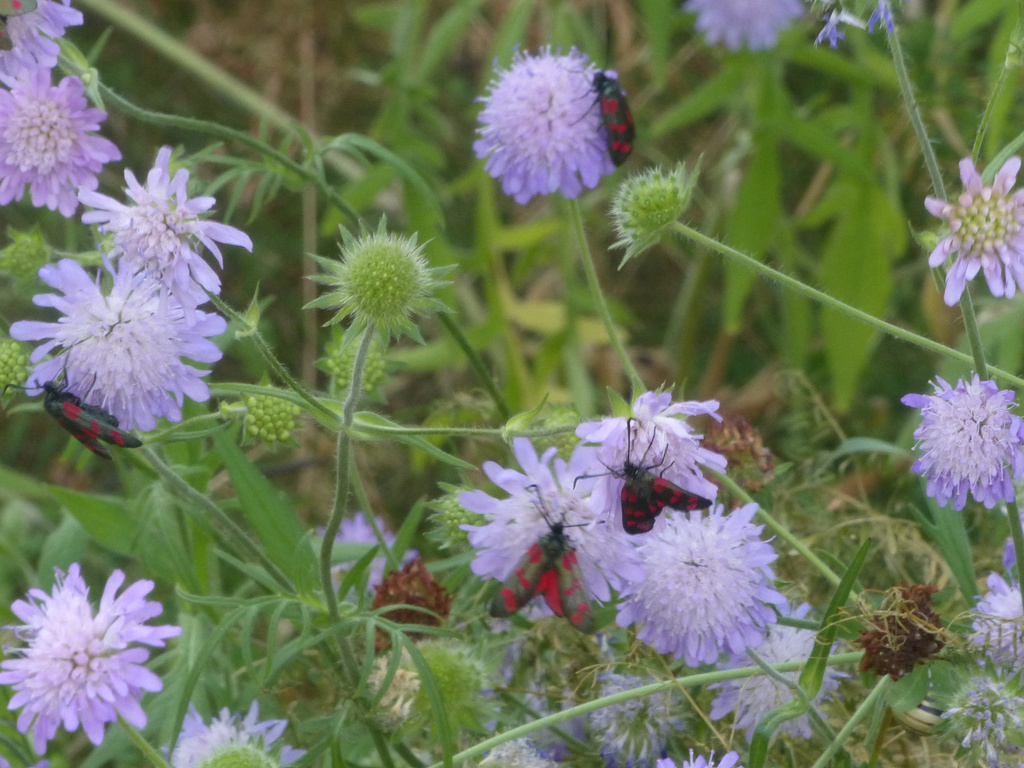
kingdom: Animalia
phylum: Arthropoda
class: Insecta
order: Lepidoptera
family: Zygaenidae
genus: Zygaena
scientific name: Zygaena filipendulae
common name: Six-spot burnet
